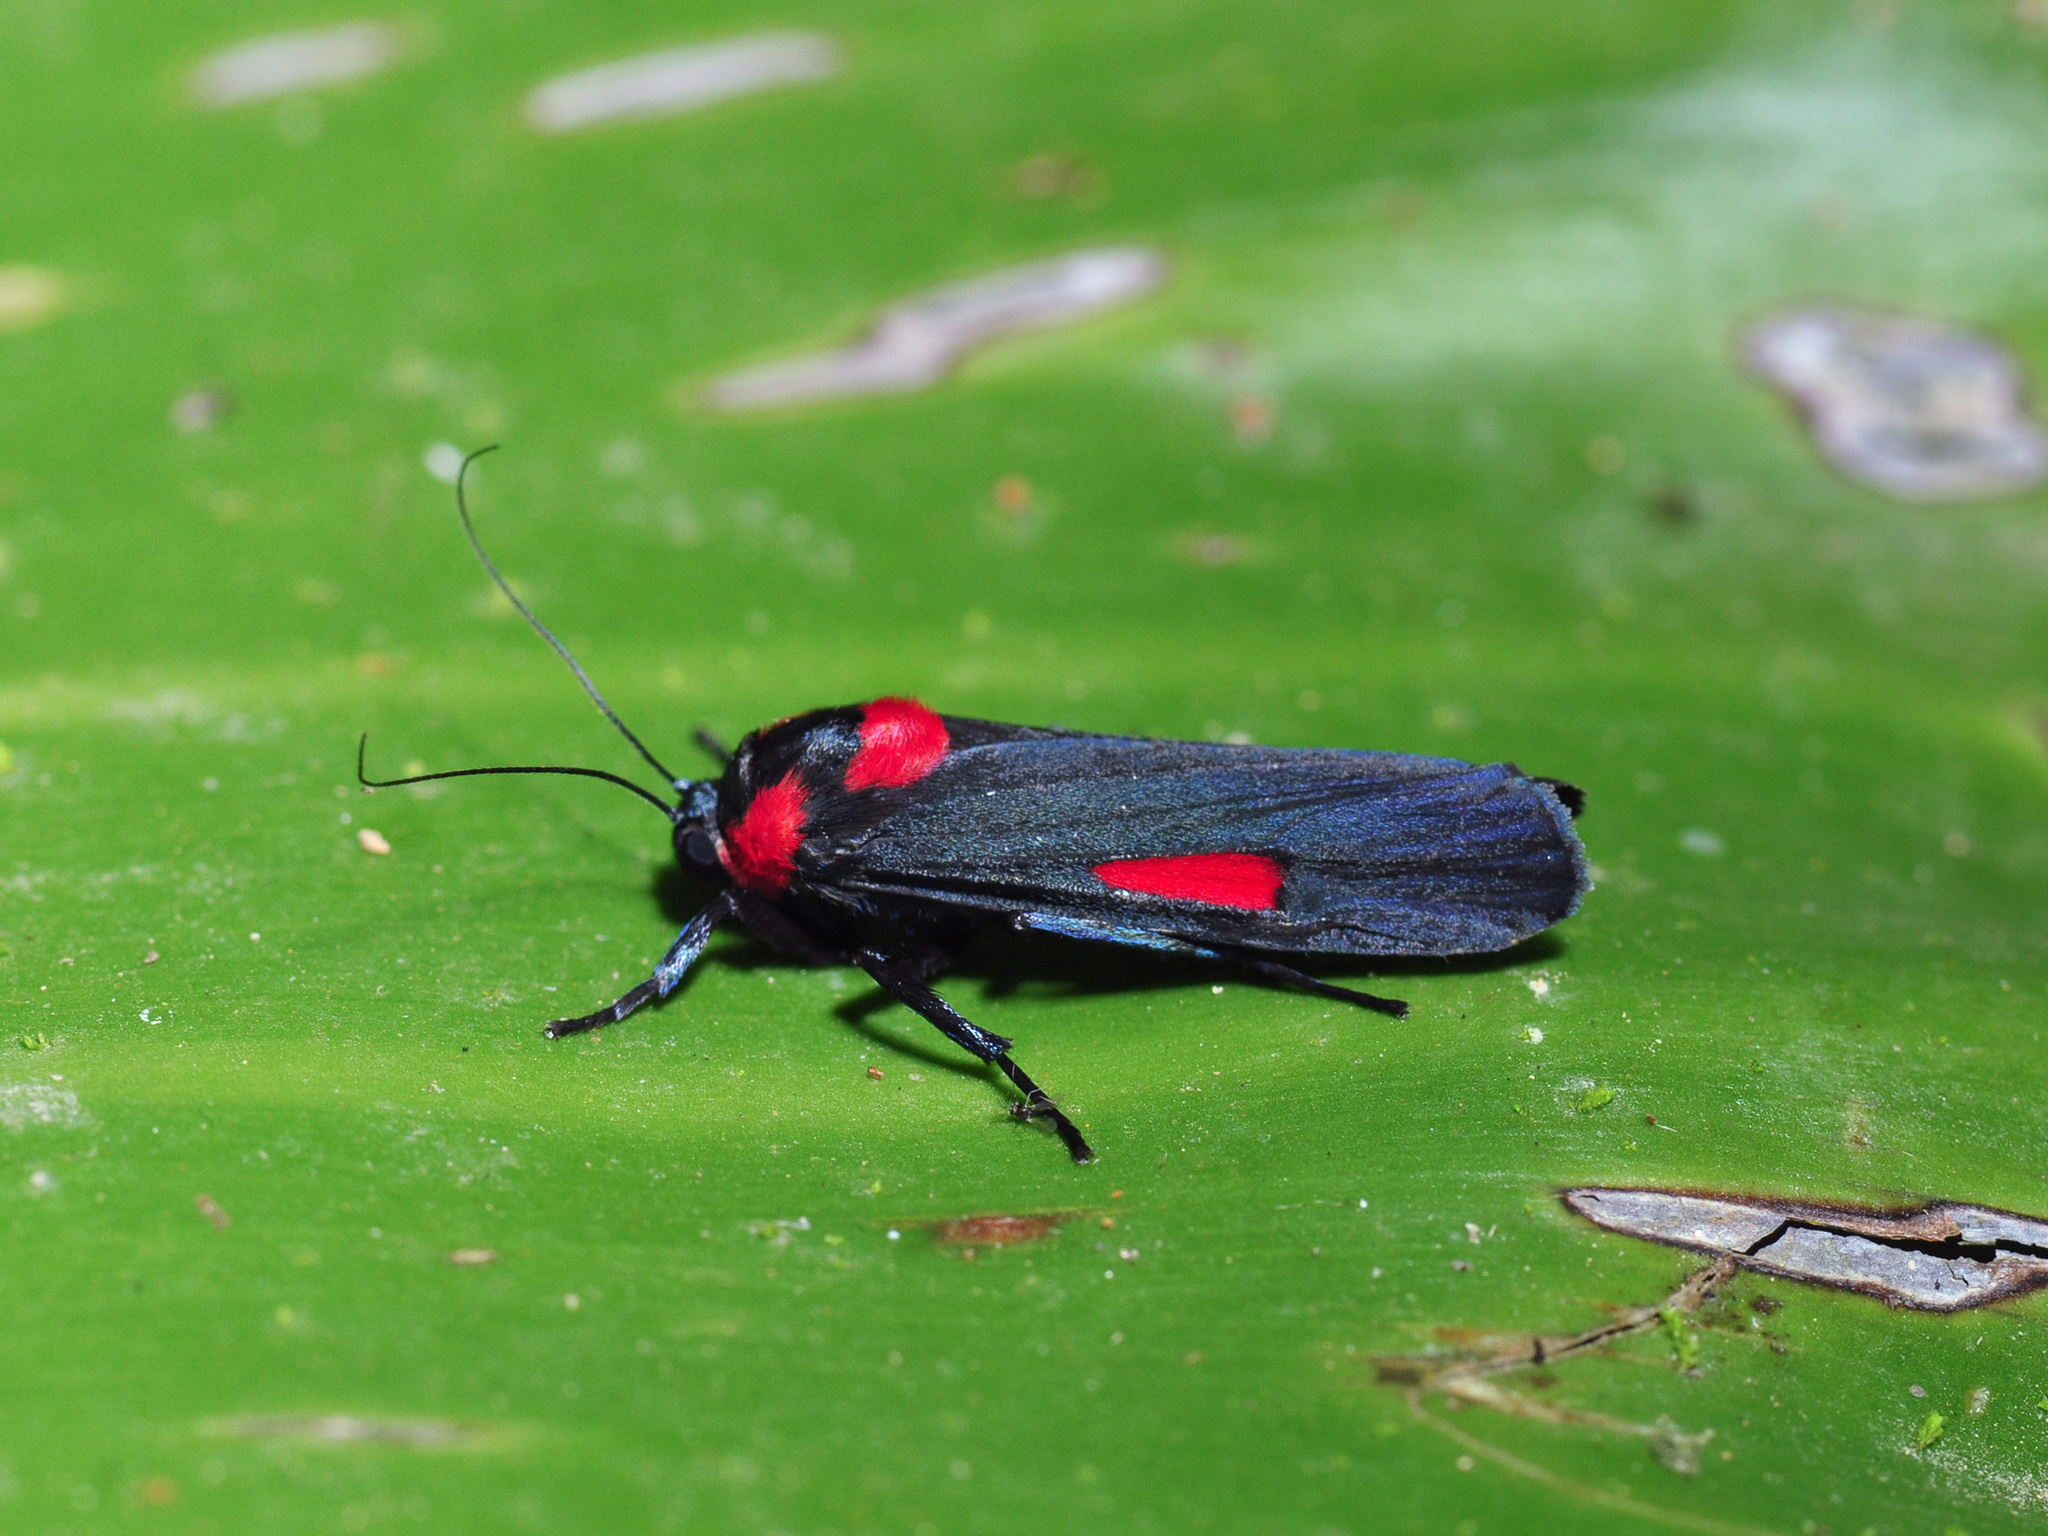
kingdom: Animalia
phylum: Arthropoda
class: Insecta
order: Lepidoptera
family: Erebidae
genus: Cyana
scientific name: Cyana tettigonioides
